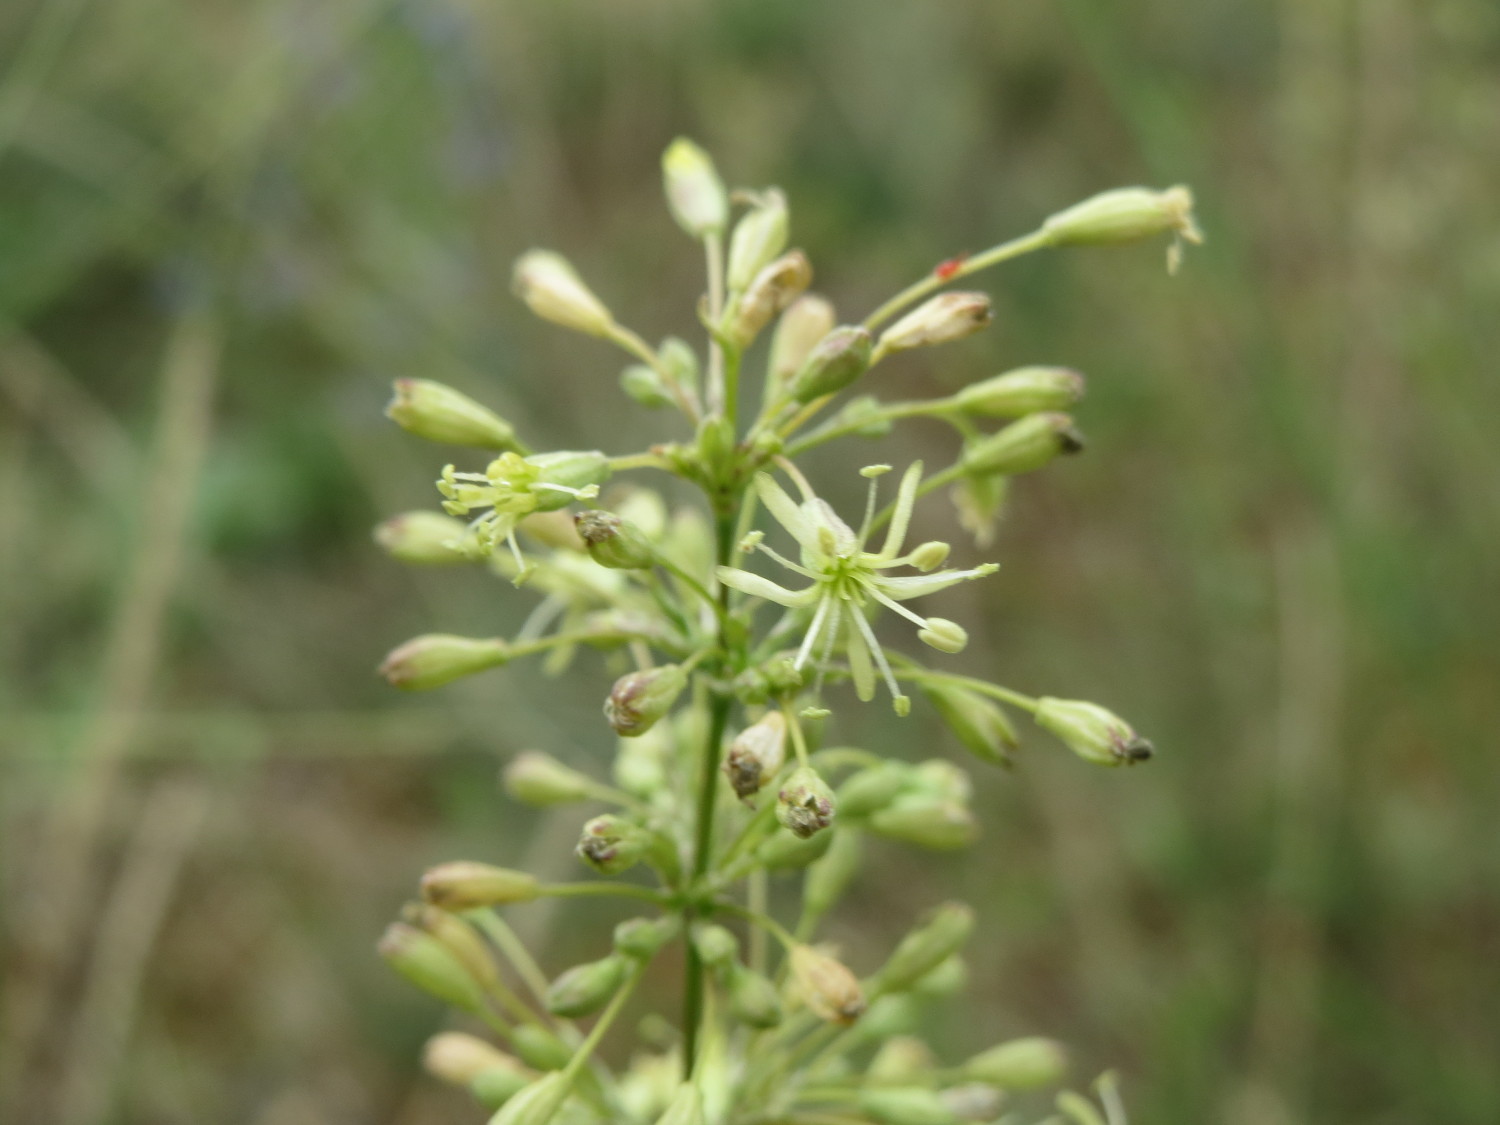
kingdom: Plantae
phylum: Tracheophyta
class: Magnoliopsida
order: Caryophyllales
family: Caryophyllaceae
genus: Silene
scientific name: Silene otites
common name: Spanish catchfly
